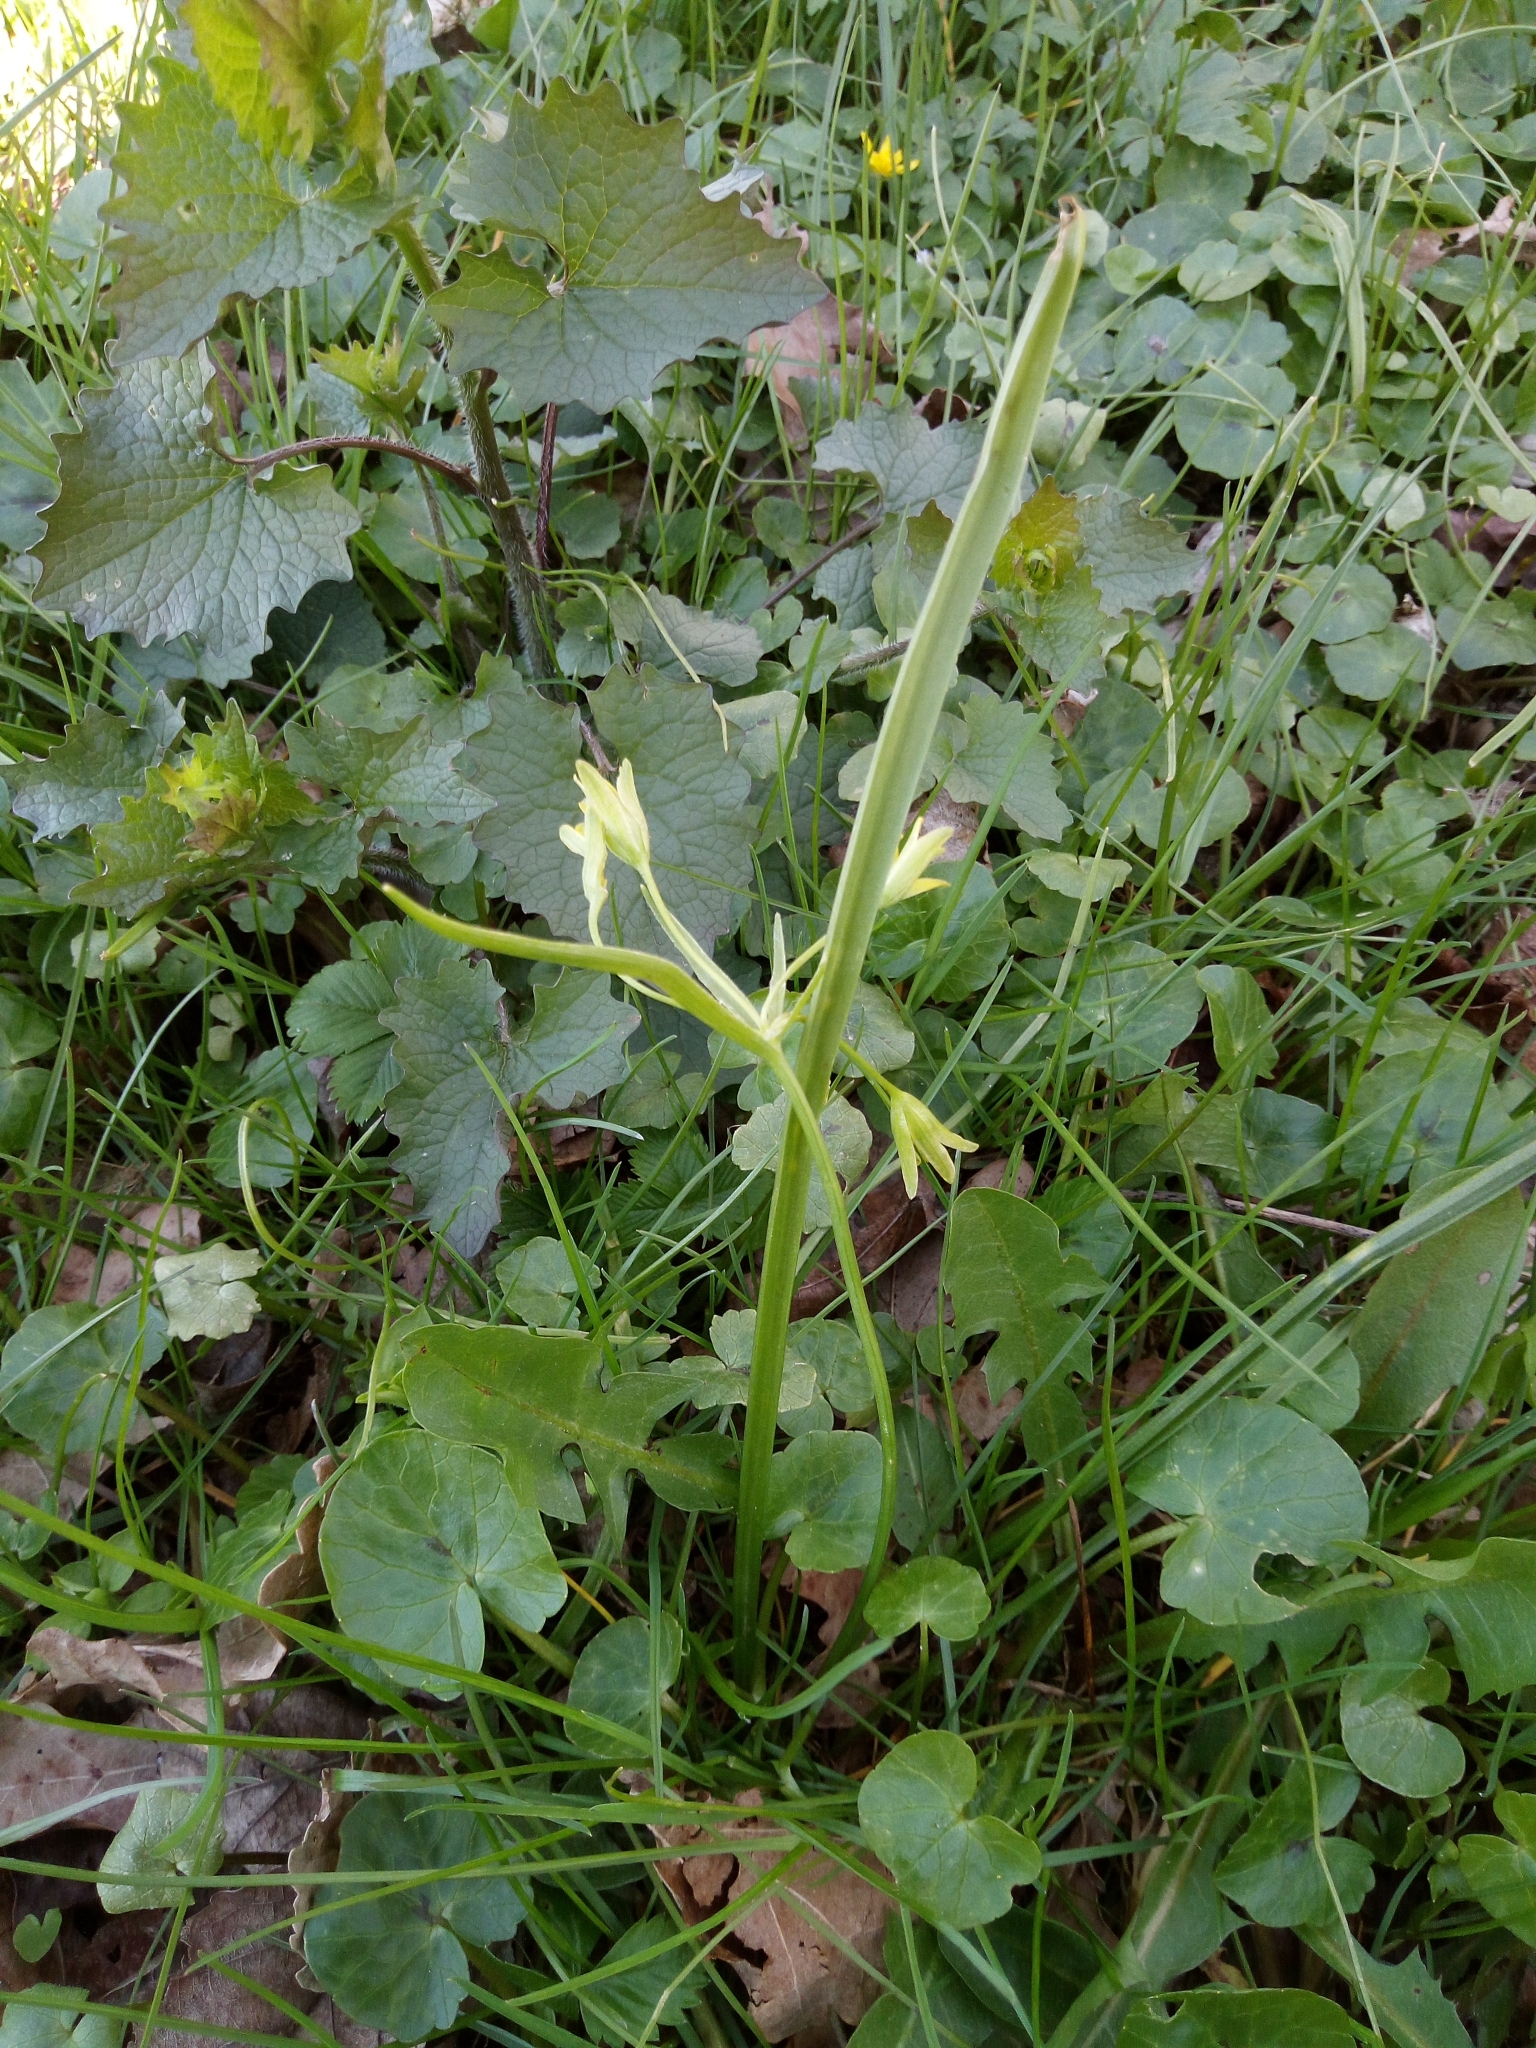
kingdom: Plantae
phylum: Tracheophyta
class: Liliopsida
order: Liliales
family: Liliaceae
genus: Gagea
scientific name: Gagea lutea
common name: Yellow star-of-bethlehem
